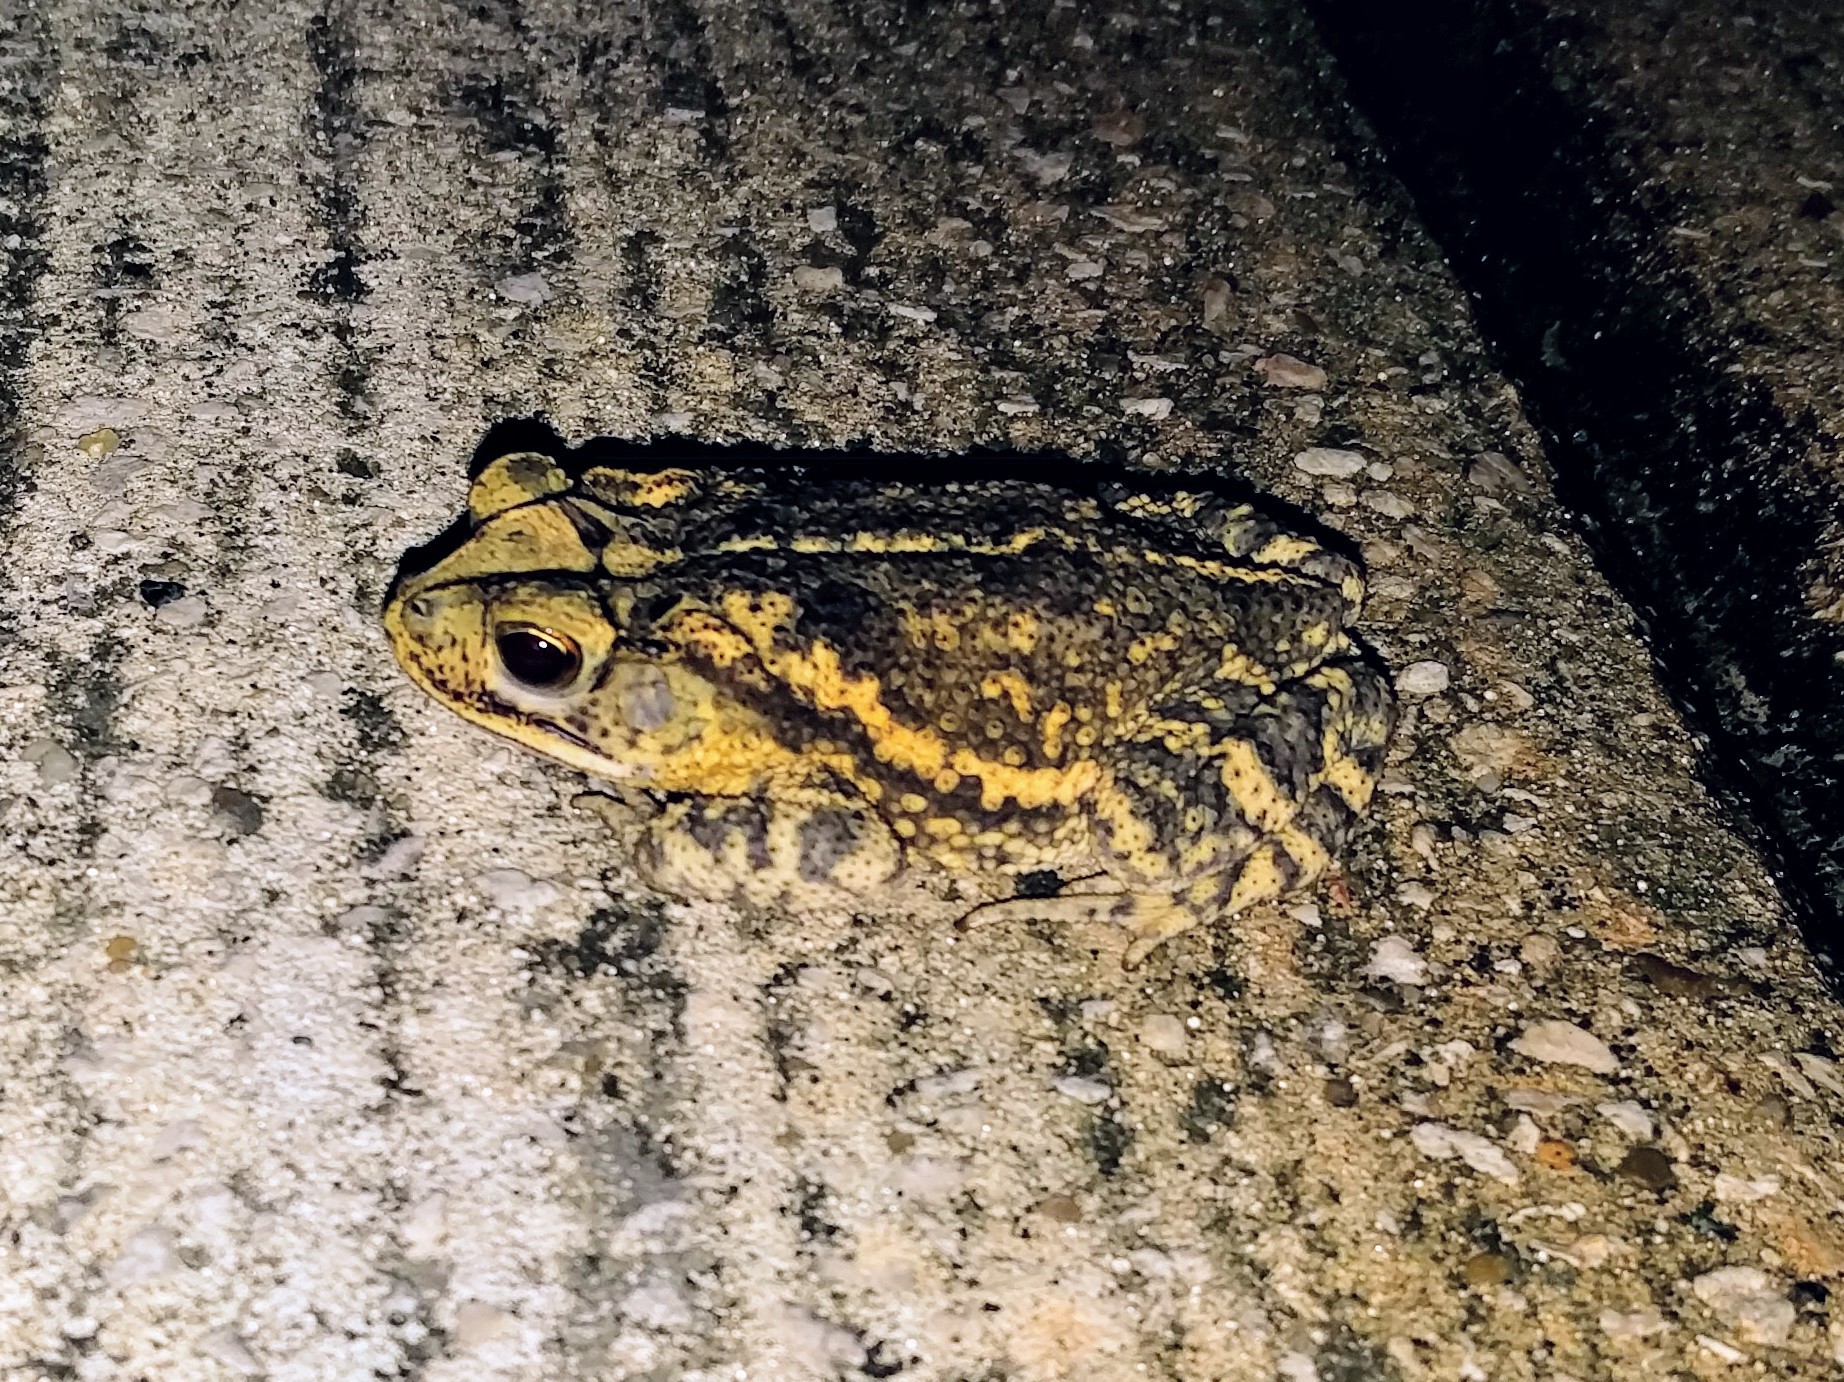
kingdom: Animalia
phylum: Chordata
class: Amphibia
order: Anura
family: Bufonidae
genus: Incilius
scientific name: Incilius nebulifer
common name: Gulf coast toad
